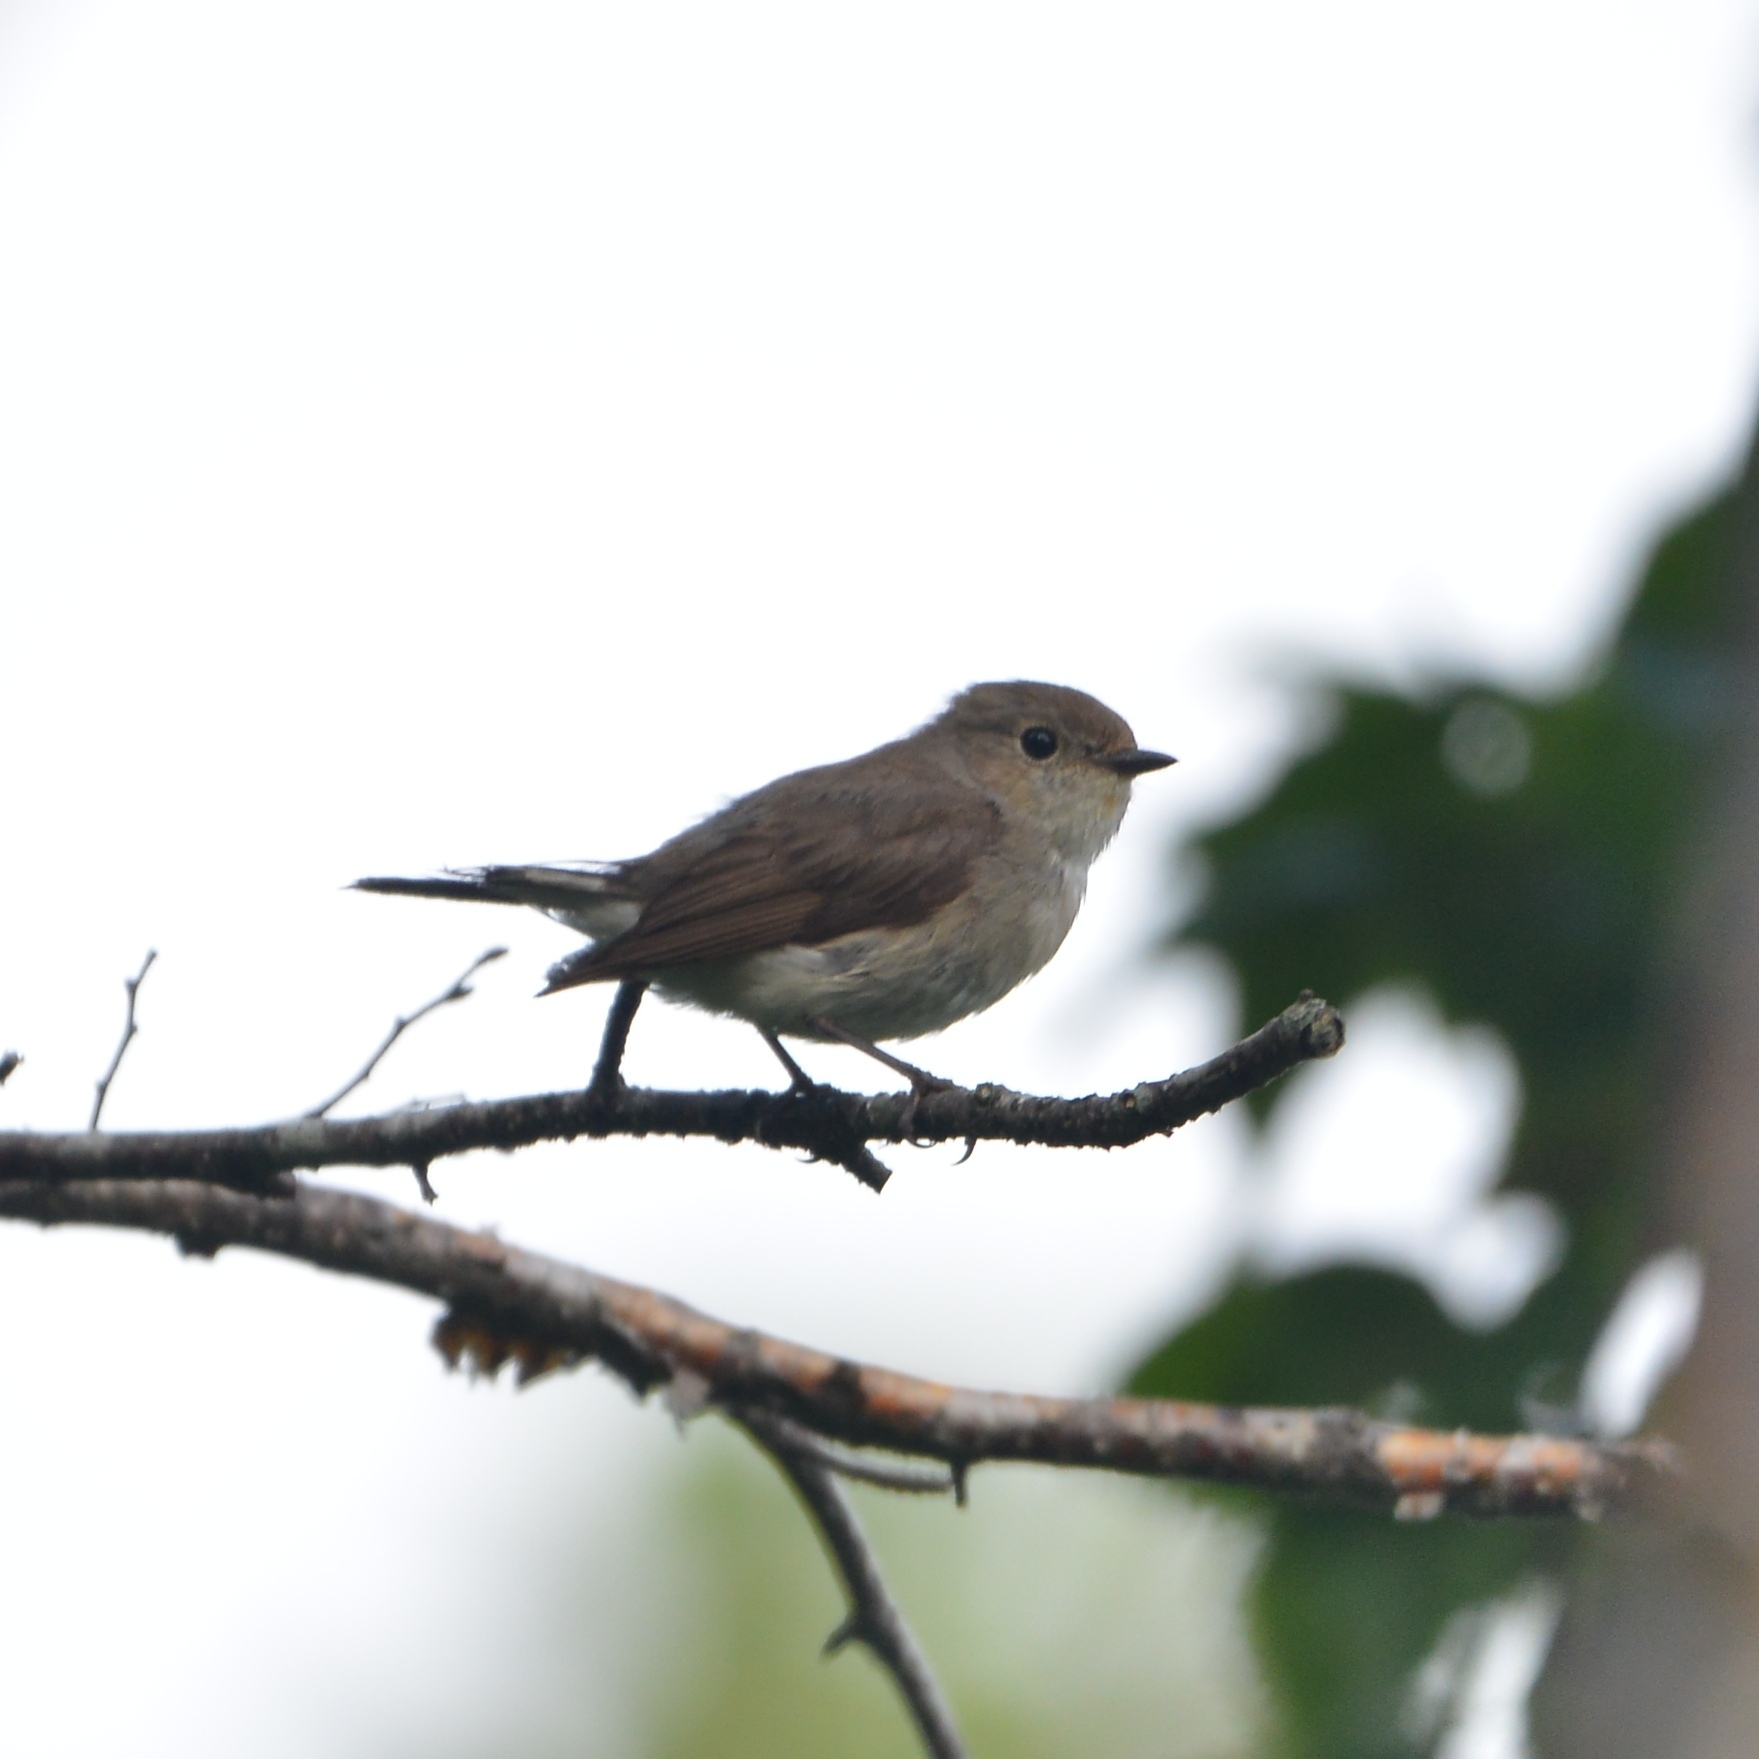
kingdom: Animalia
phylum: Chordata
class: Aves
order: Passeriformes
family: Muscicapidae
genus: Ficedula
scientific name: Ficedula albicilla
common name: Taiga flycatcher
